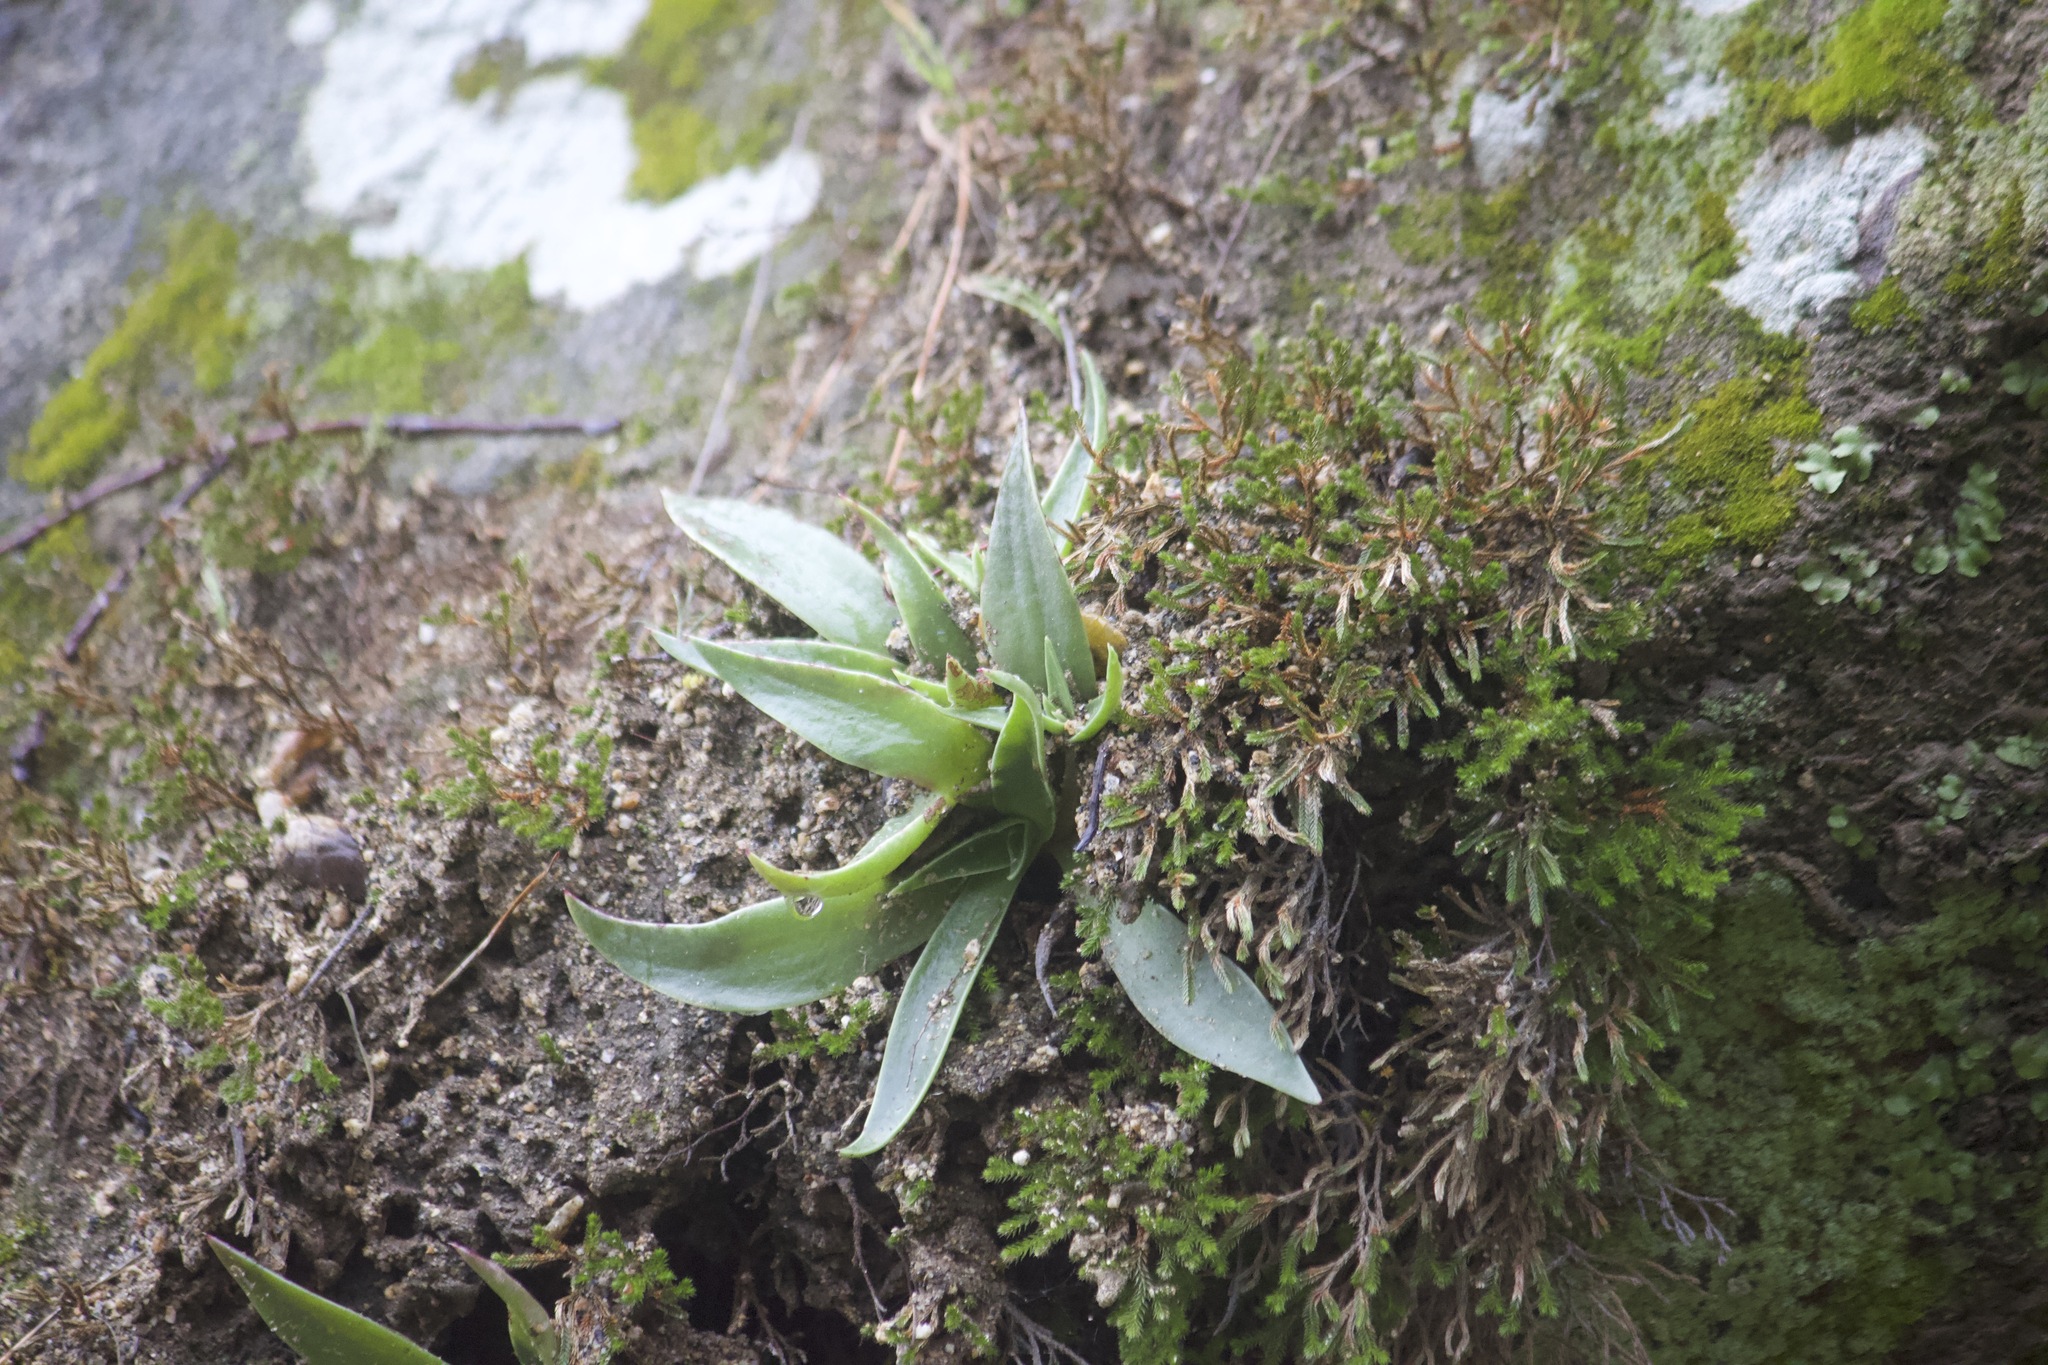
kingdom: Plantae
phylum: Tracheophyta
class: Magnoliopsida
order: Saxifragales
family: Crassulaceae
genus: Dudleya
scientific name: Dudleya lanceolata
